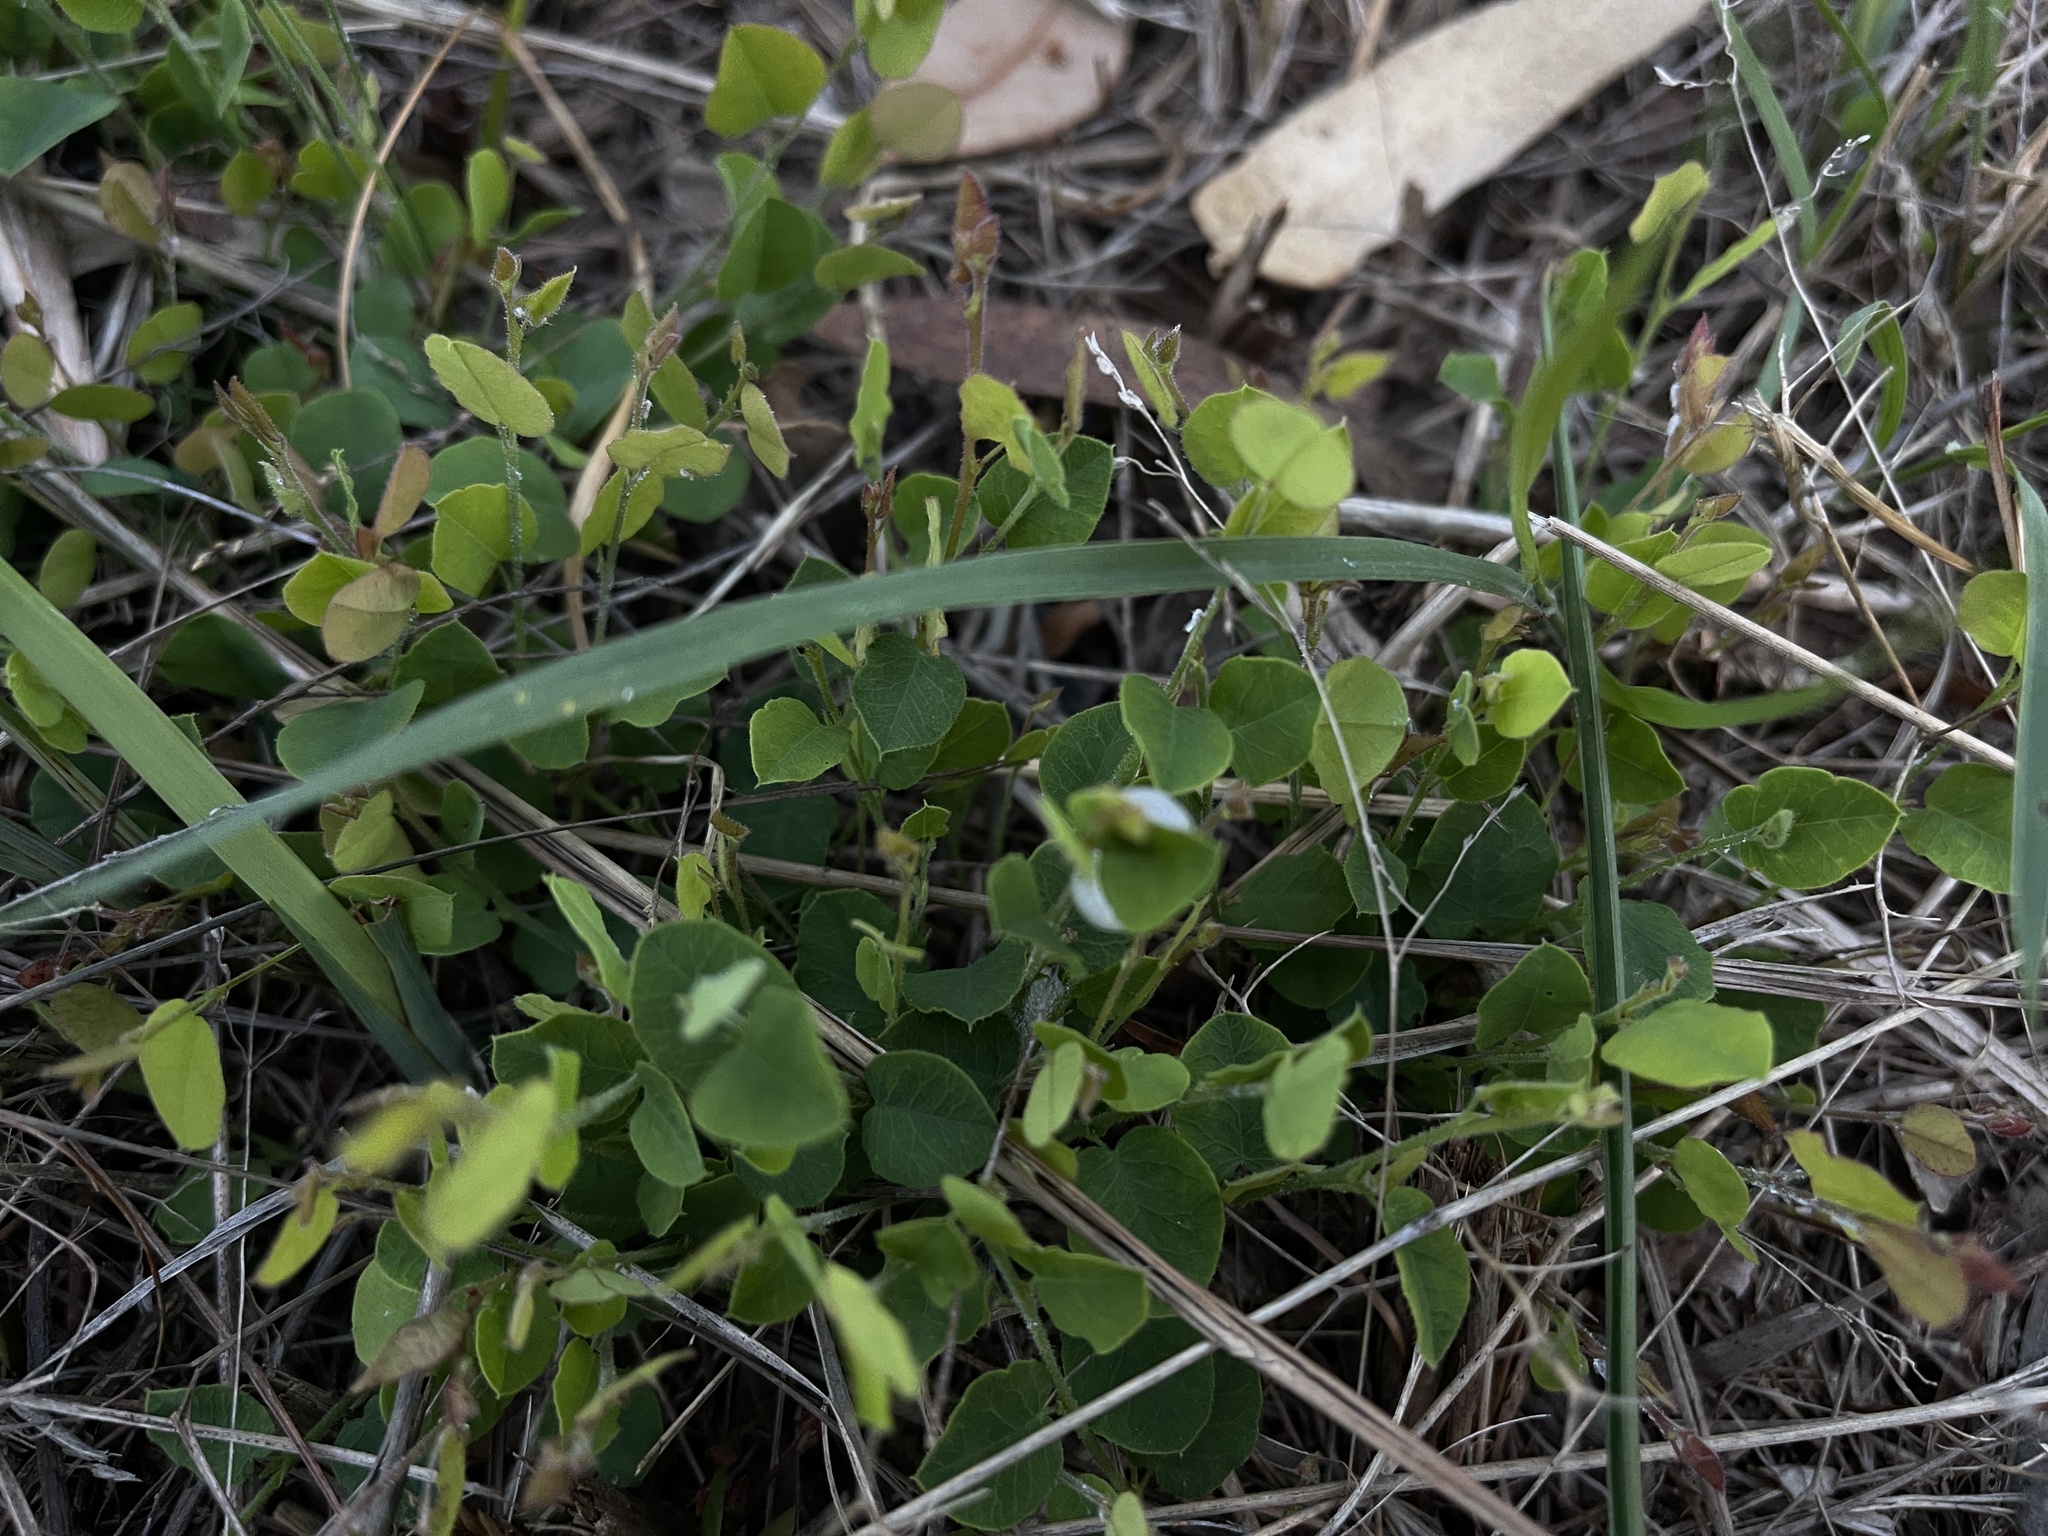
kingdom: Plantae
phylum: Tracheophyta
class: Magnoliopsida
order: Fabales
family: Fabaceae
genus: Bossiaea
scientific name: Bossiaea prostrata
